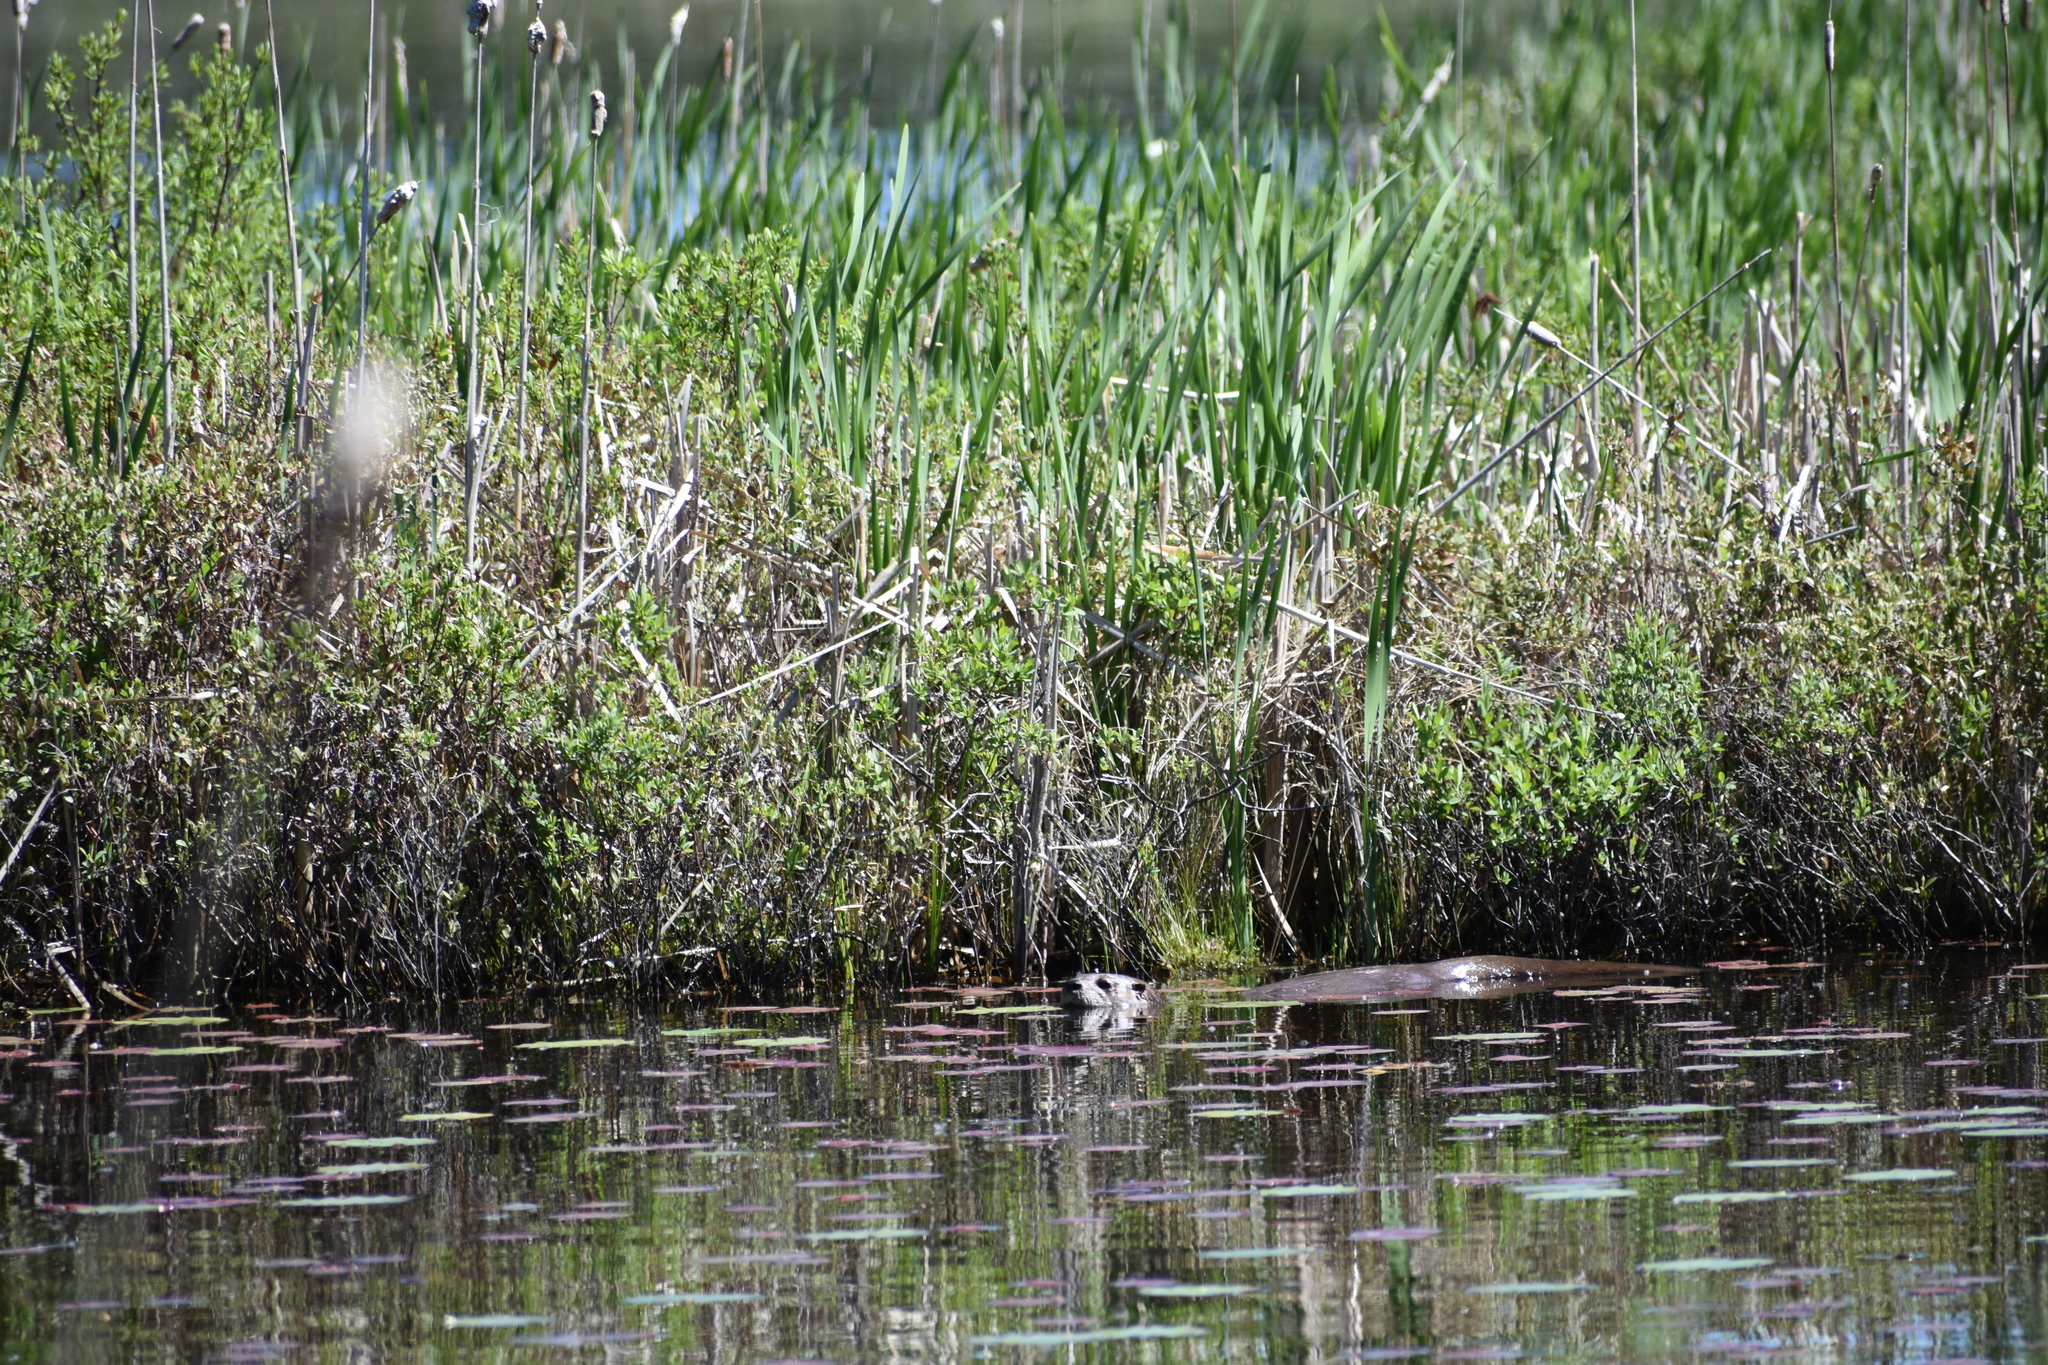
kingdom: Animalia
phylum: Chordata
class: Mammalia
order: Carnivora
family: Mustelidae
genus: Lontra
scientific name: Lontra canadensis
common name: North american river otter
